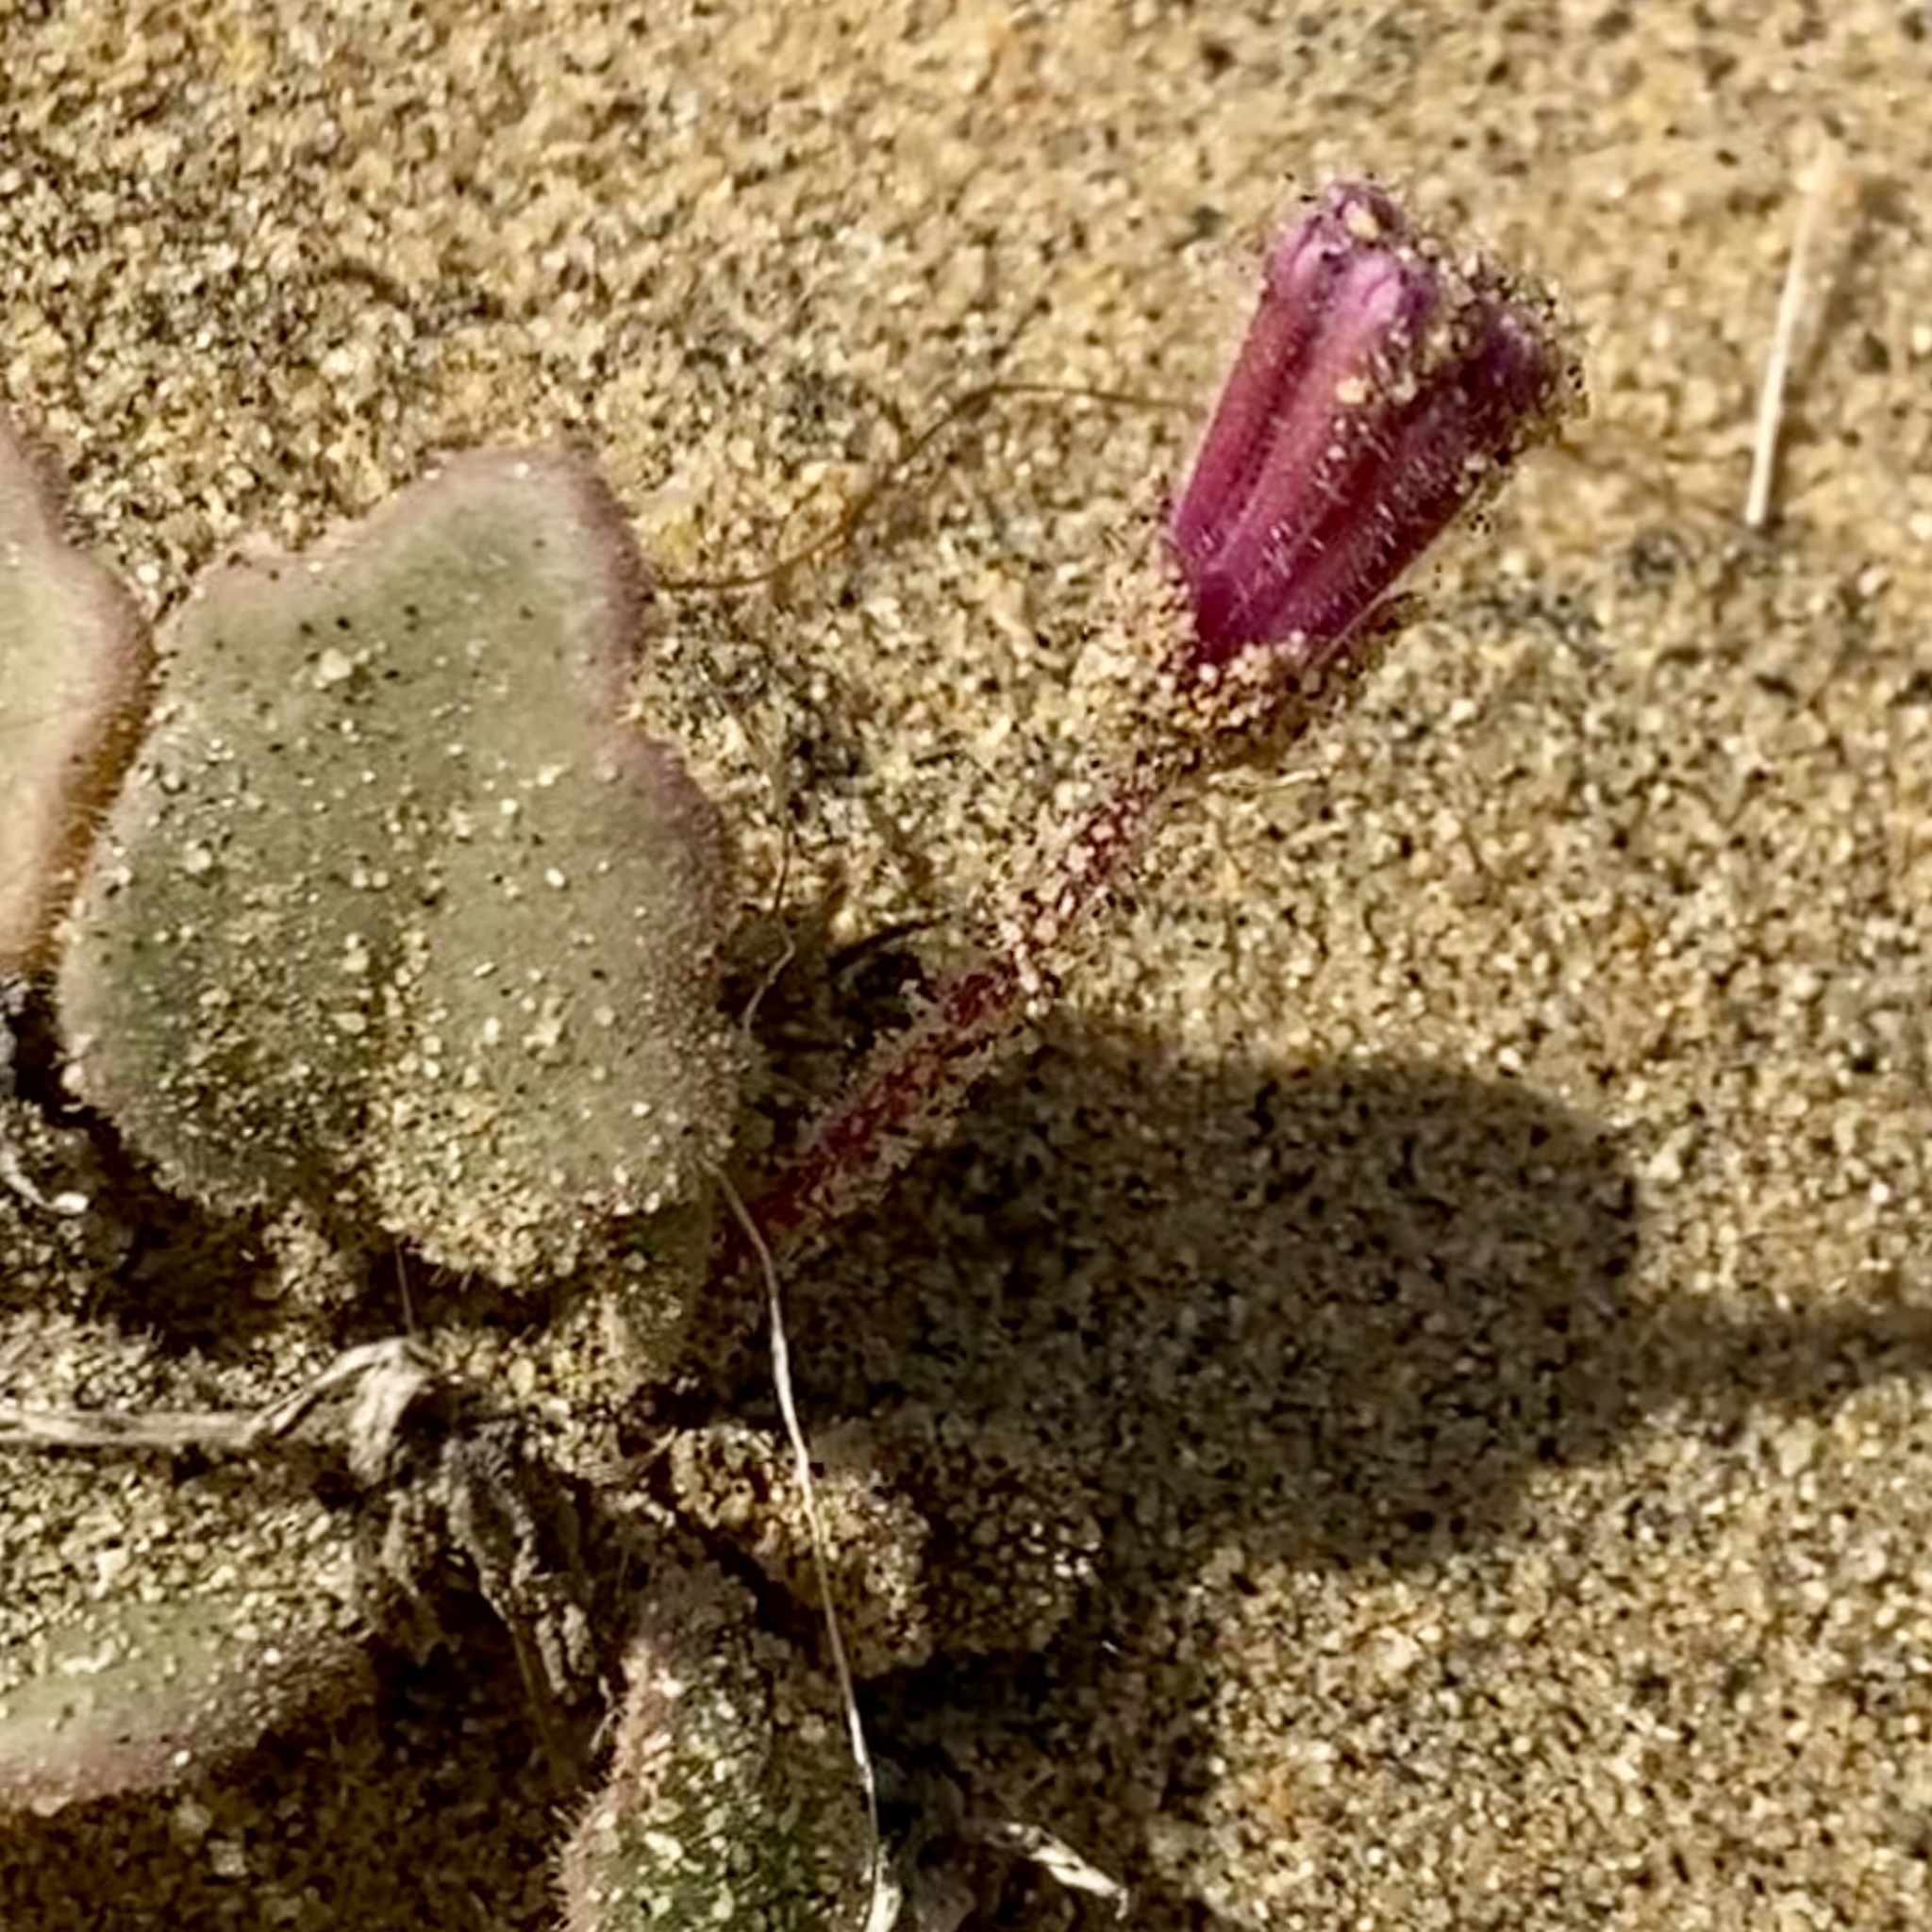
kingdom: Plantae
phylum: Tracheophyta
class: Magnoliopsida
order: Caryophyllales
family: Nyctaginaceae
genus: Abronia
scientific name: Abronia umbellata
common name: Sand-verbena
